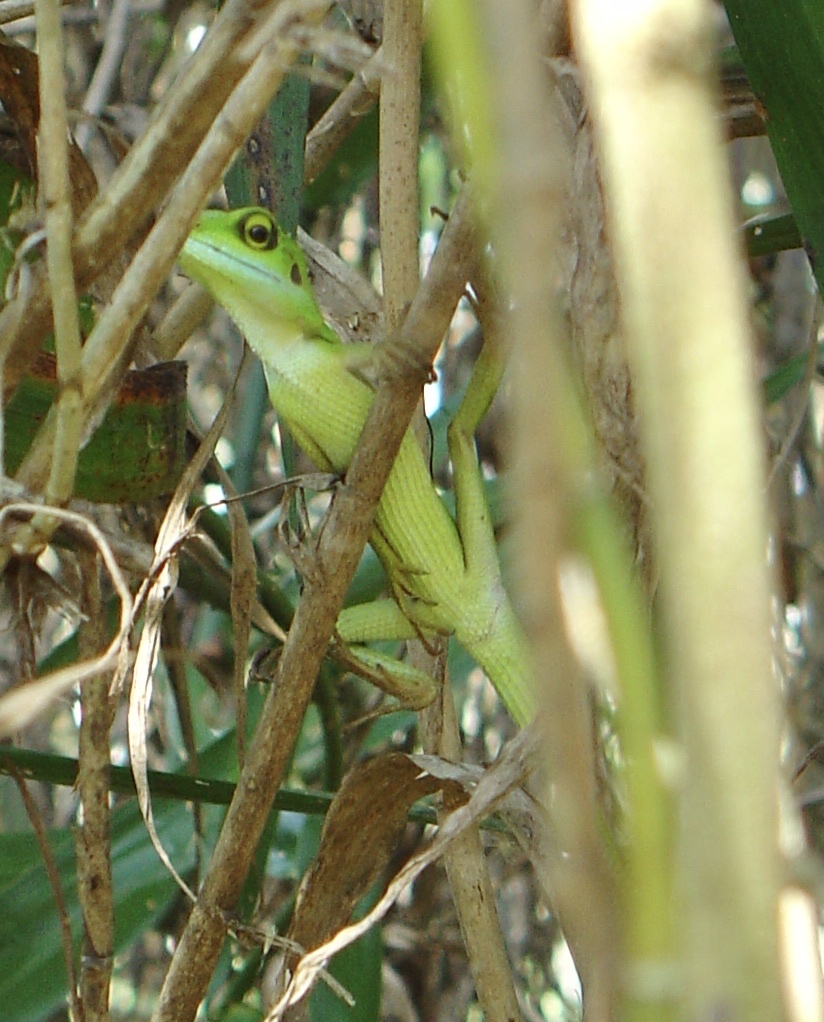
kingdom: Animalia
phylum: Chordata
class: Squamata
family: Agamidae
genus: Bronchocela
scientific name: Bronchocela cristatella
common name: Green crested lizard
